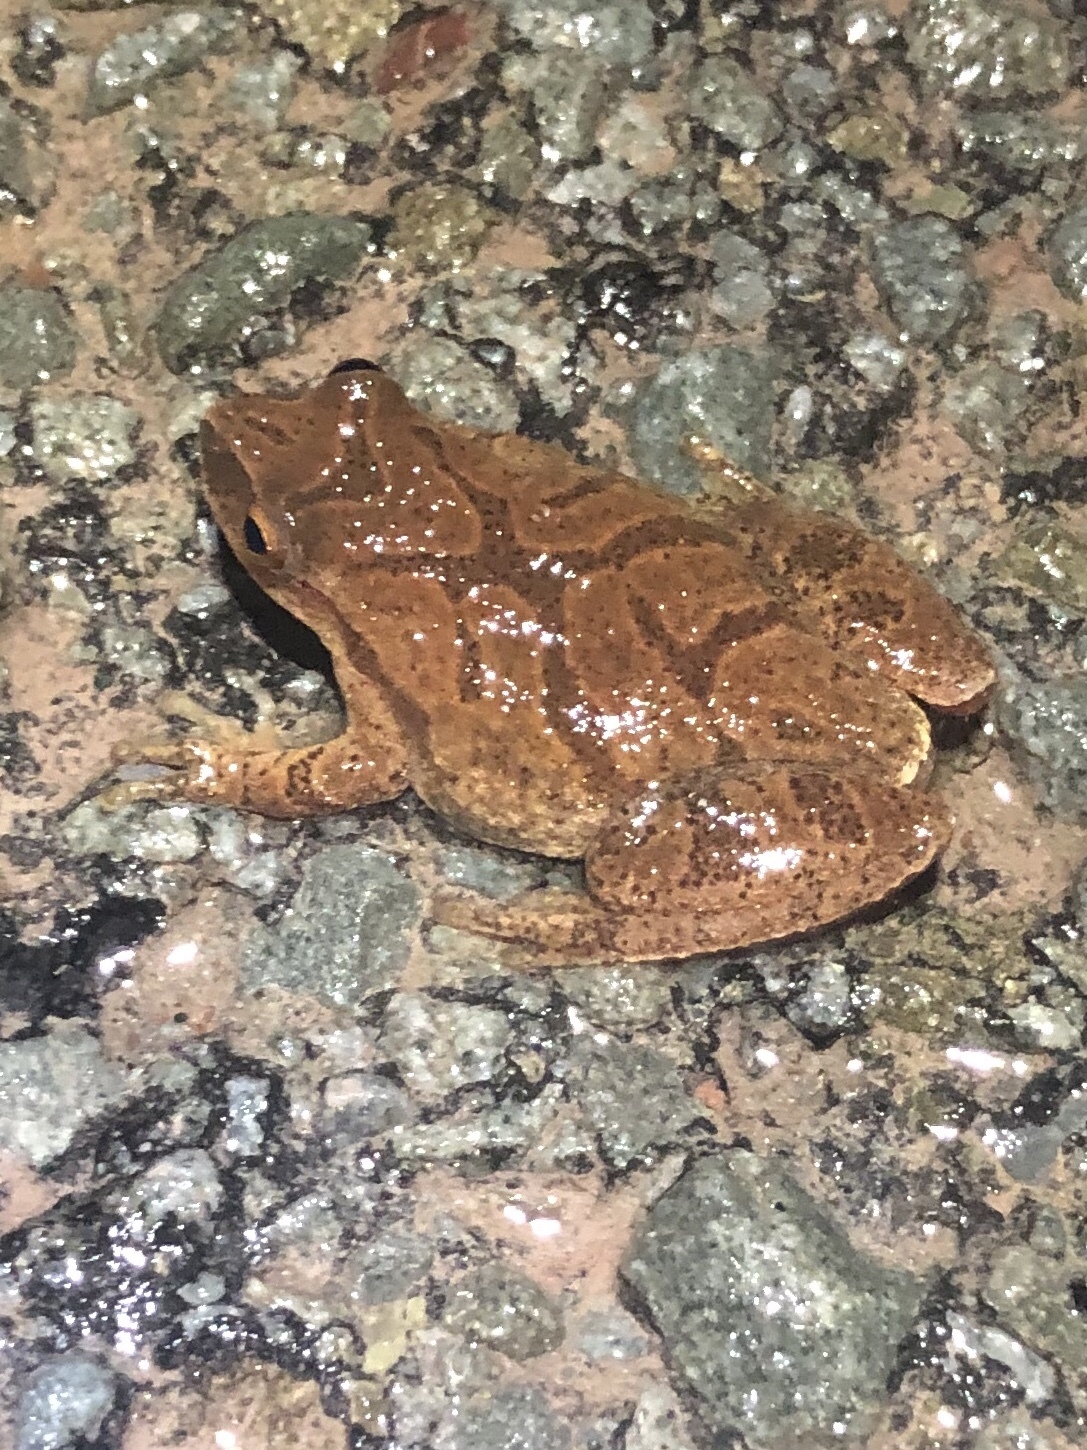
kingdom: Animalia
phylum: Chordata
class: Amphibia
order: Anura
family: Hylidae
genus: Pseudacris
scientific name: Pseudacris crucifer
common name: Spring peeper
